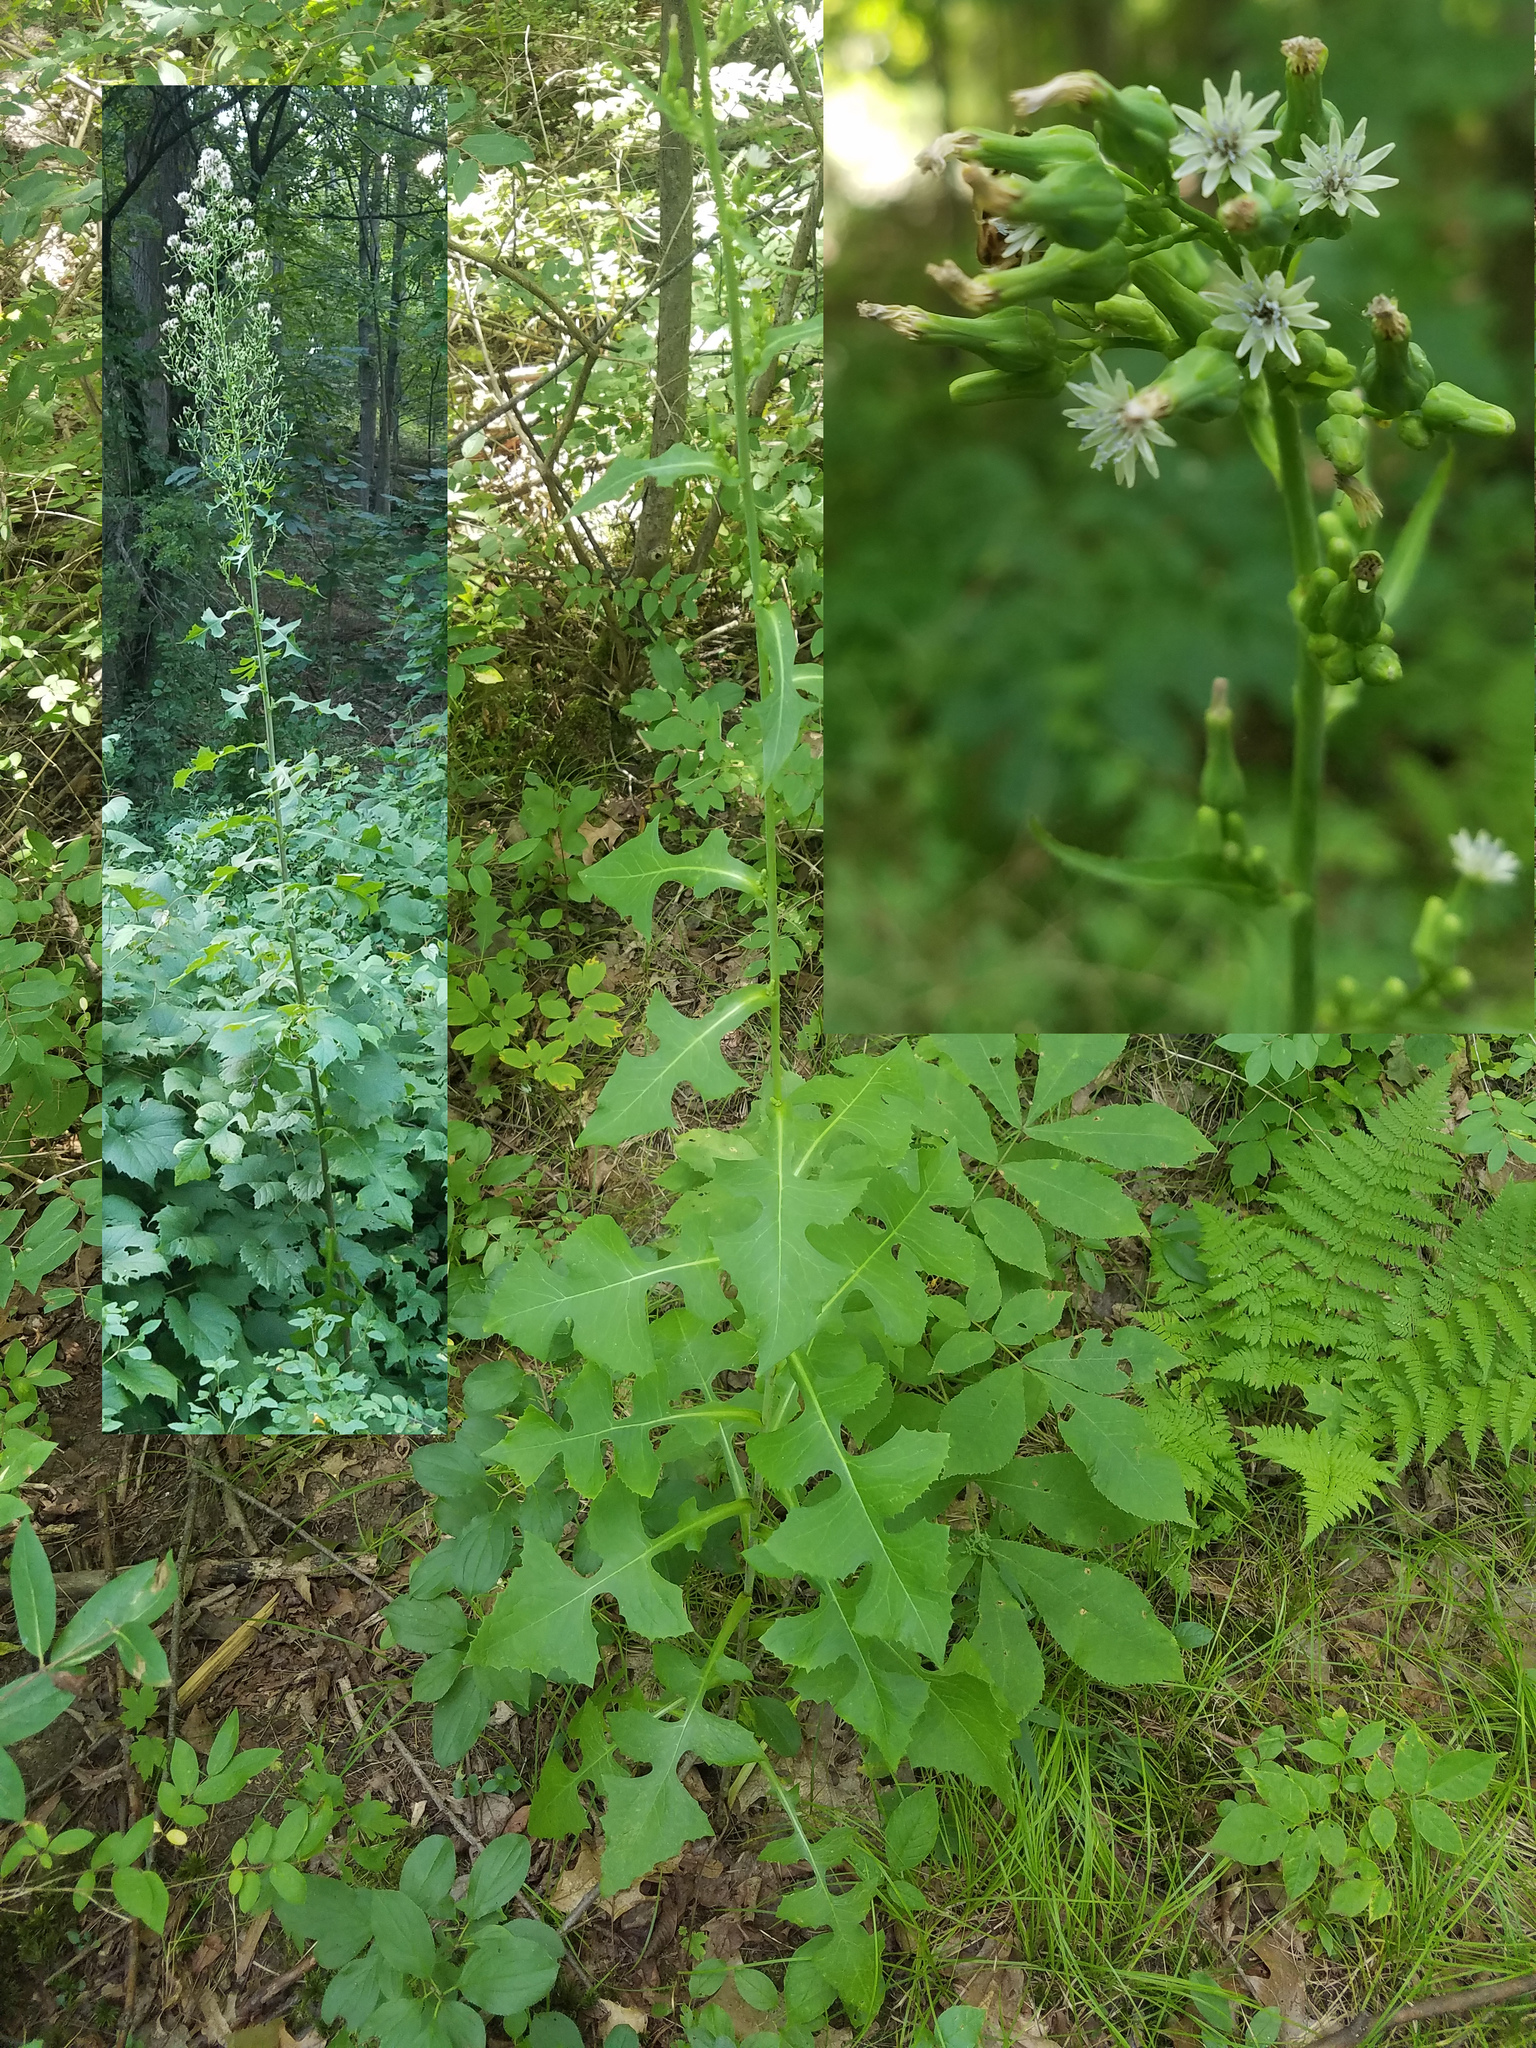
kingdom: Plantae
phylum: Tracheophyta
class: Magnoliopsida
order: Asterales
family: Asteraceae
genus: Lactuca
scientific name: Lactuca biennis
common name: Blue wood lettuce
